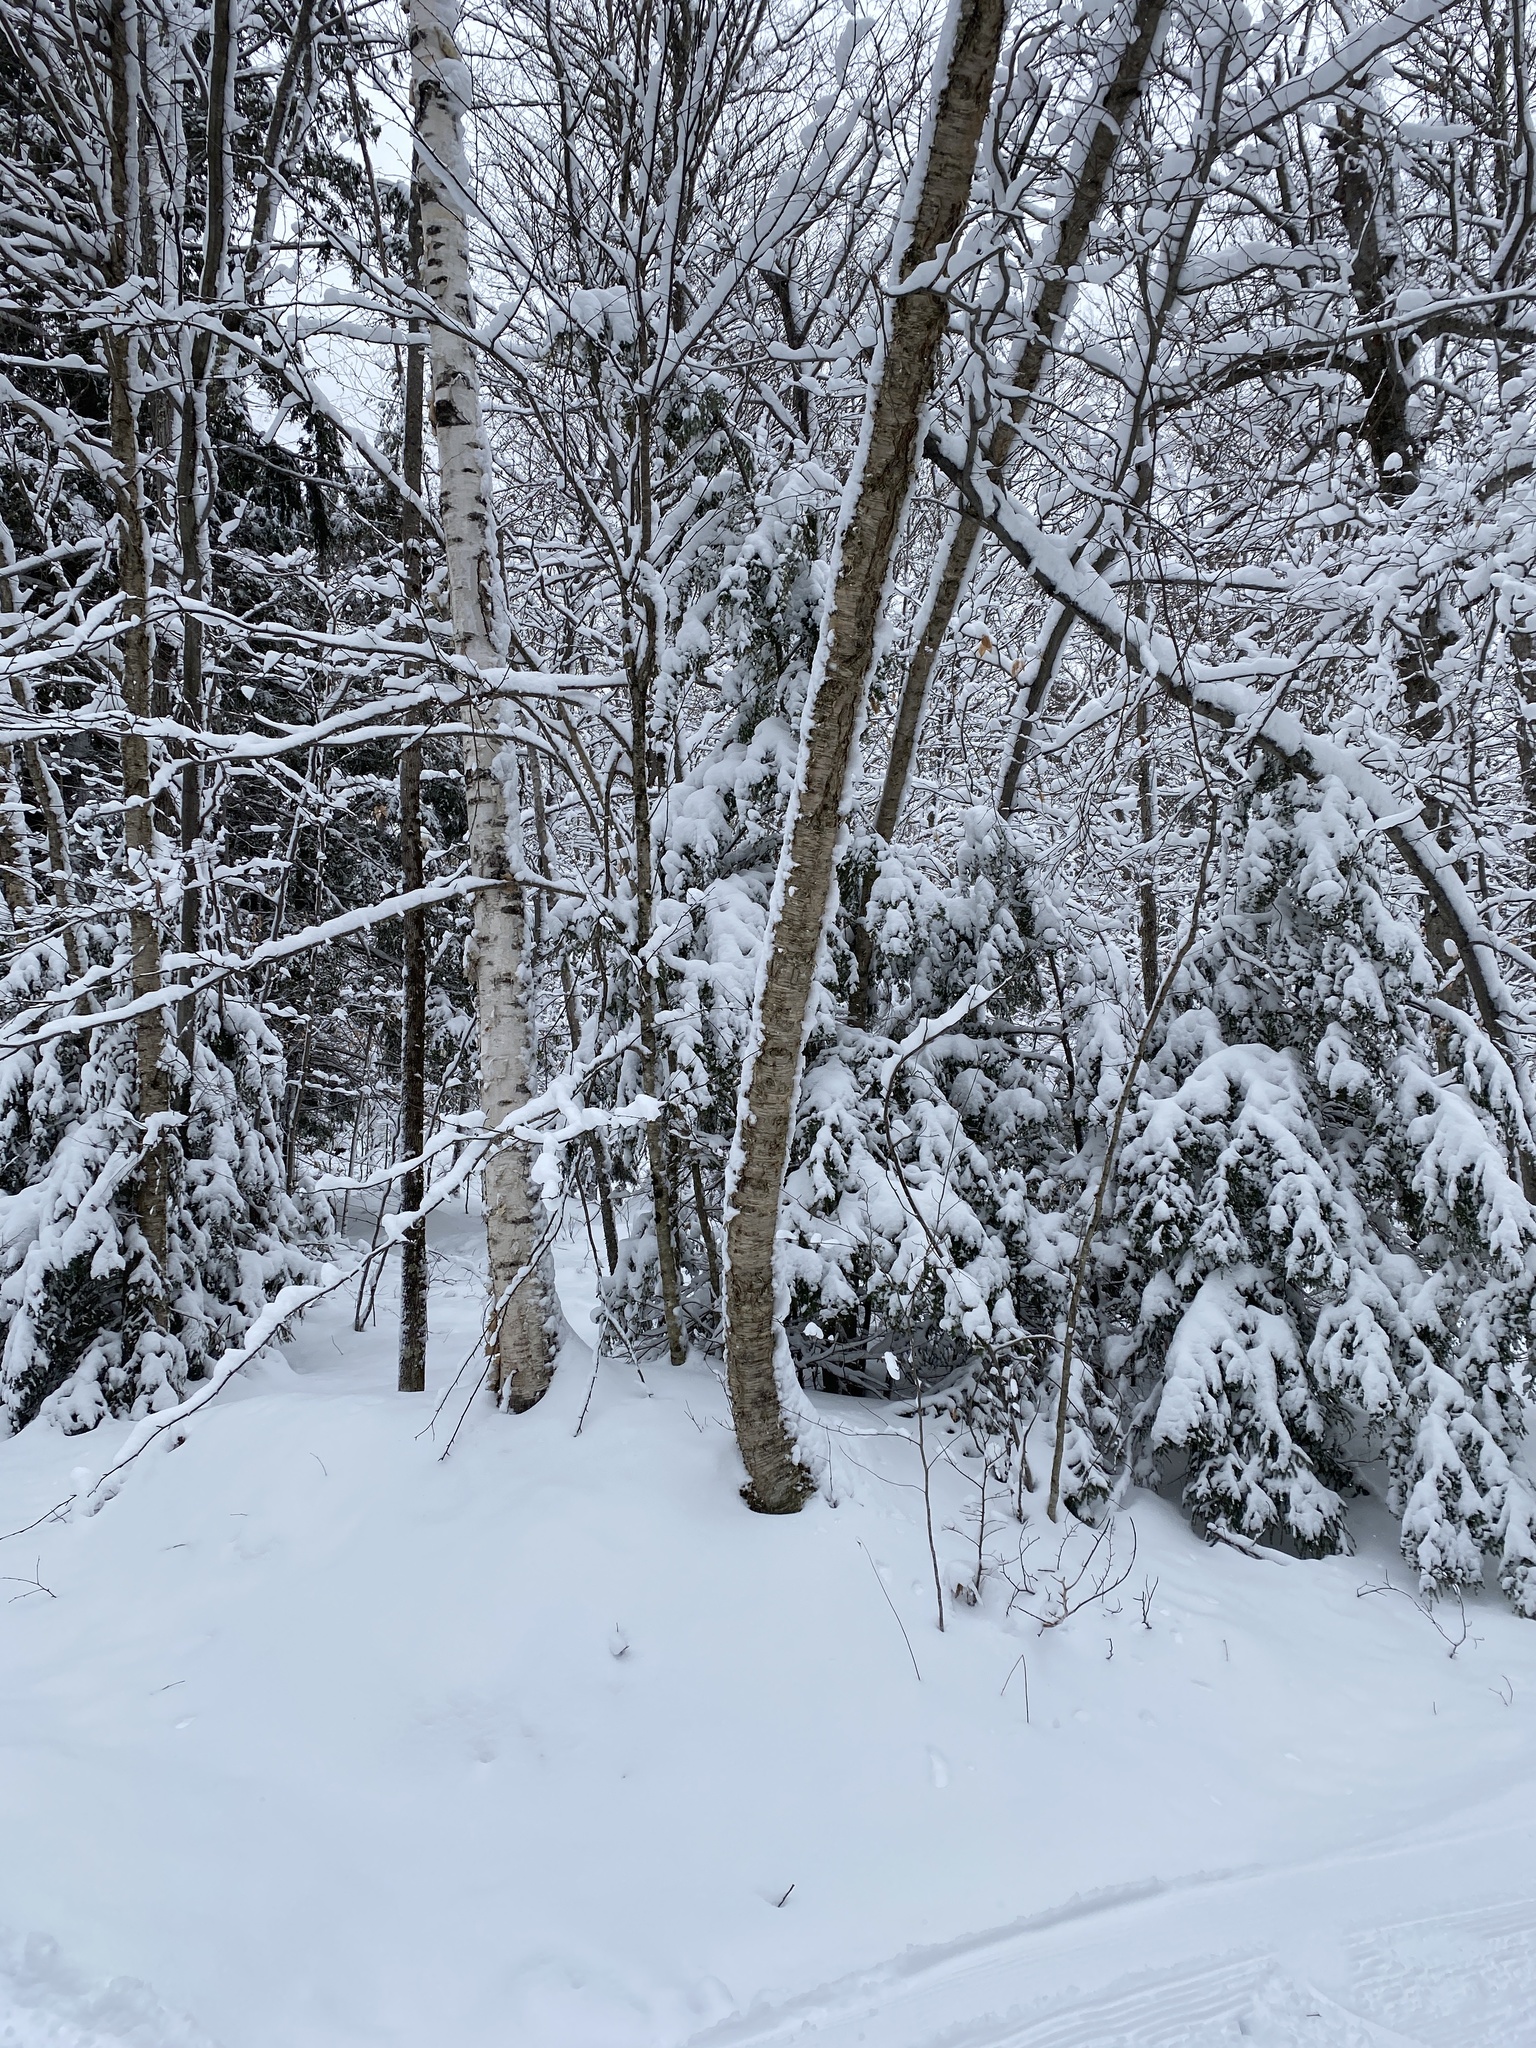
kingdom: Plantae
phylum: Tracheophyta
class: Magnoliopsida
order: Fagales
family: Betulaceae
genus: Betula
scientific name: Betula papyrifera
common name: Paper birch
